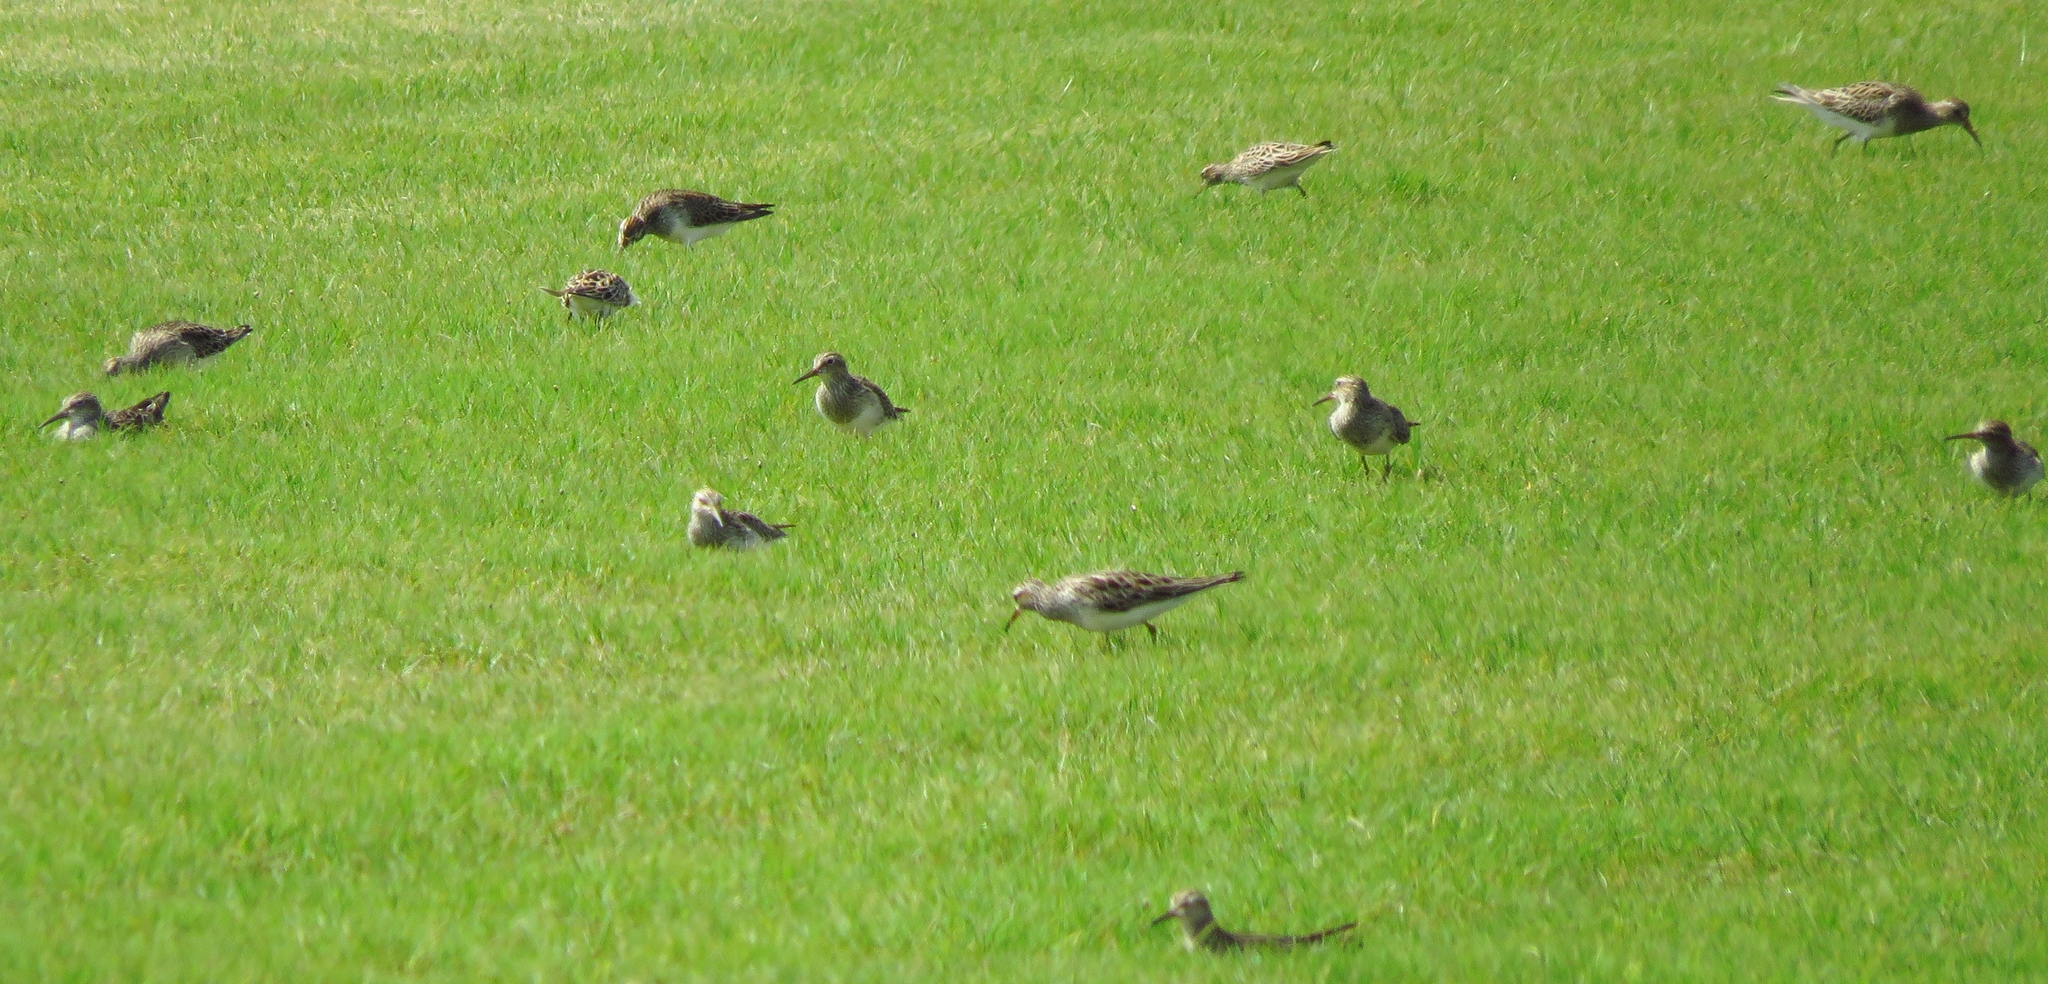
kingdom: Animalia
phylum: Chordata
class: Aves
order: Charadriiformes
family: Scolopacidae
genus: Calidris
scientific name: Calidris melanotos
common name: Pectoral sandpiper
